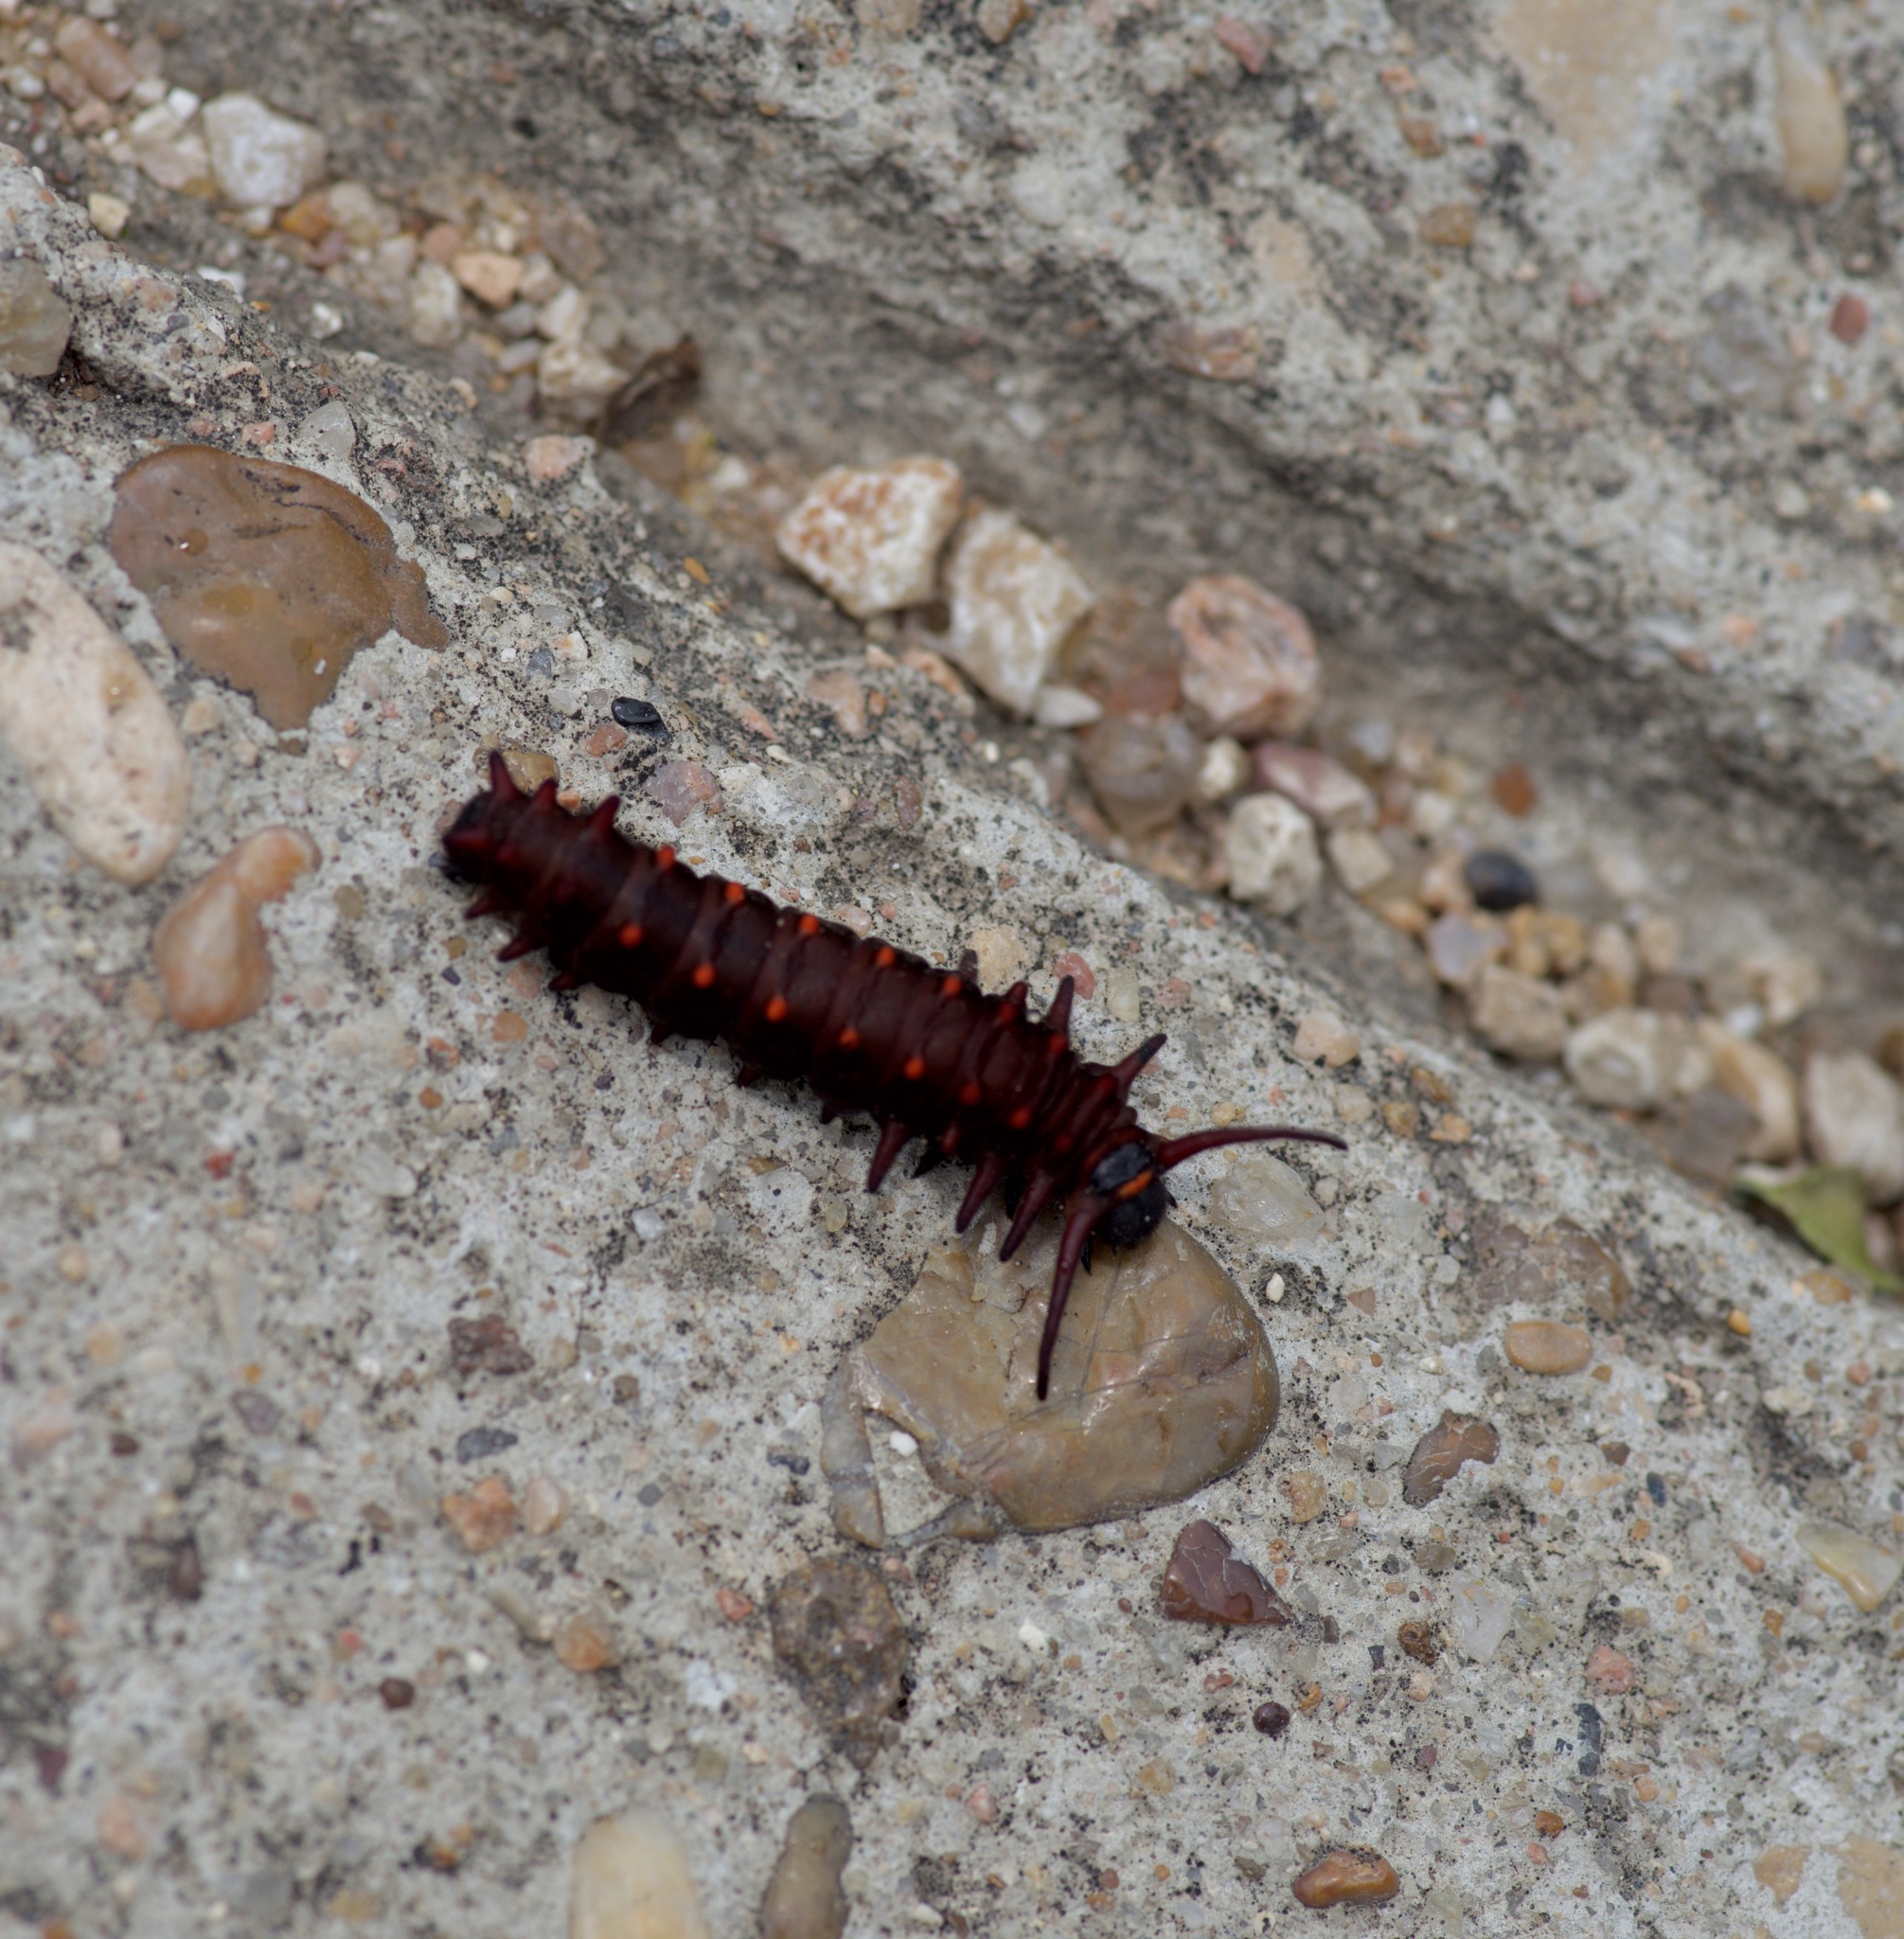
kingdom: Animalia
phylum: Arthropoda
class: Insecta
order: Lepidoptera
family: Papilionidae
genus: Battus
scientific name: Battus philenor
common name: Pipevine swallowtail
